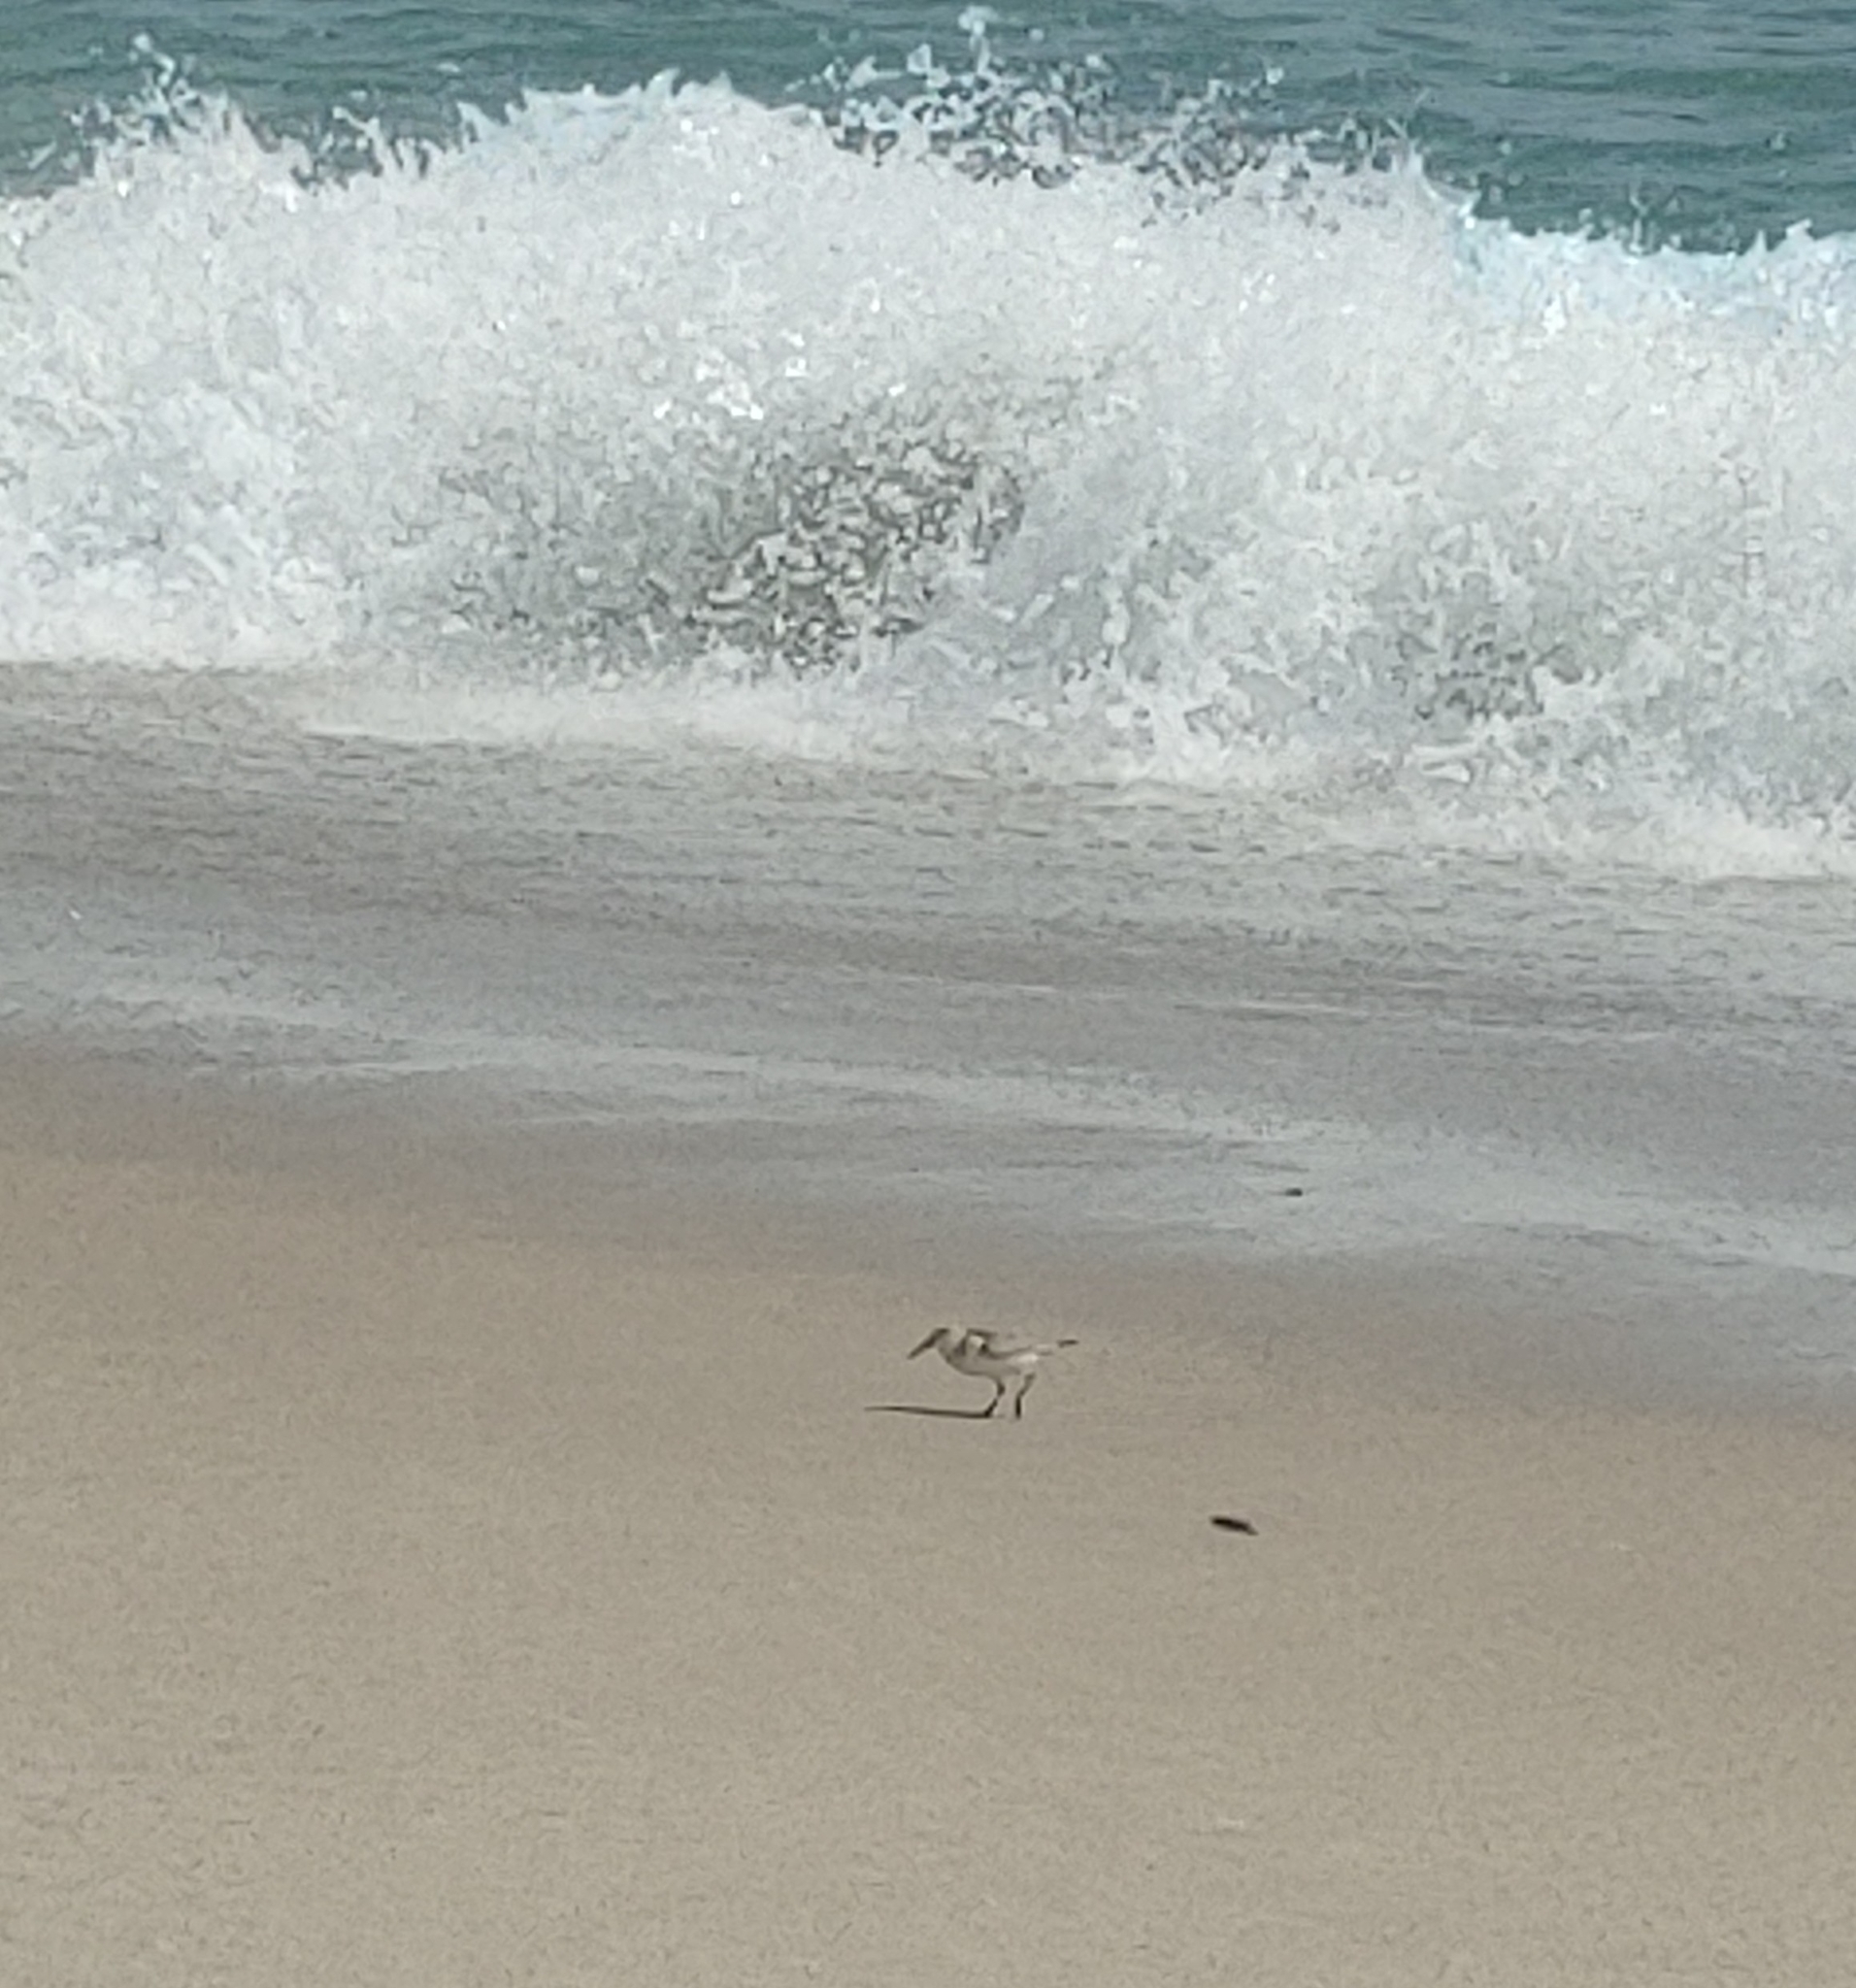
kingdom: Animalia
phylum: Chordata
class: Aves
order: Charadriiformes
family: Scolopacidae
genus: Calidris
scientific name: Calidris alba
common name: Sanderling
